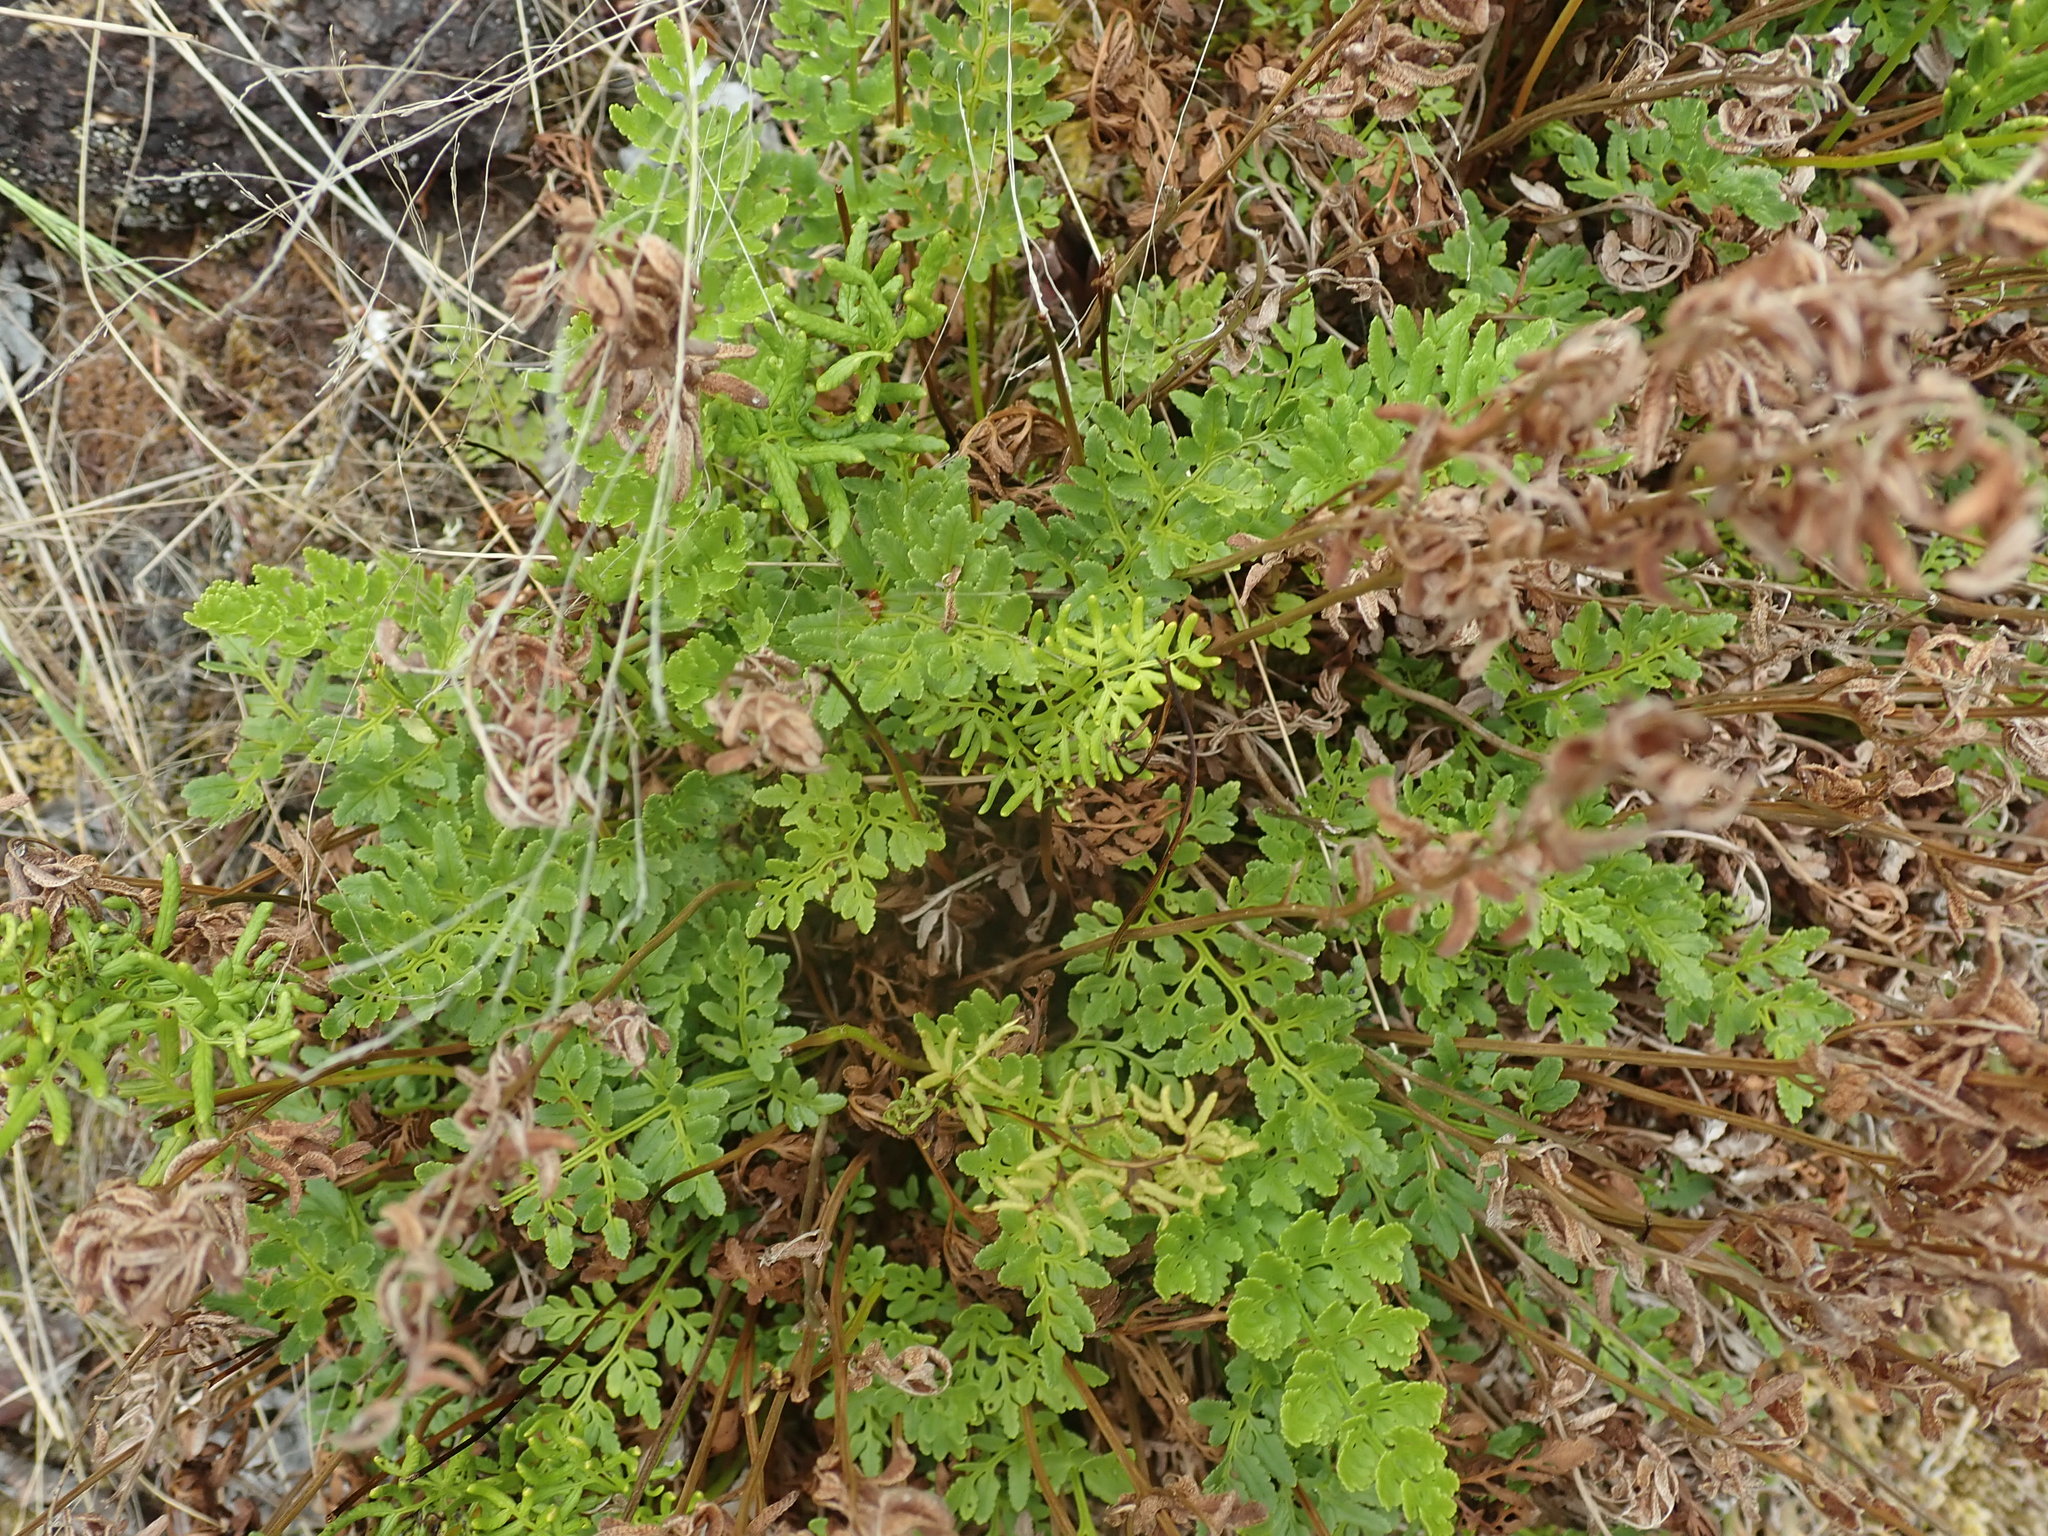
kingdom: Plantae
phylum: Tracheophyta
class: Polypodiopsida
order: Polypodiales
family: Pteridaceae
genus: Cryptogramma
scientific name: Cryptogramma acrostichoides
